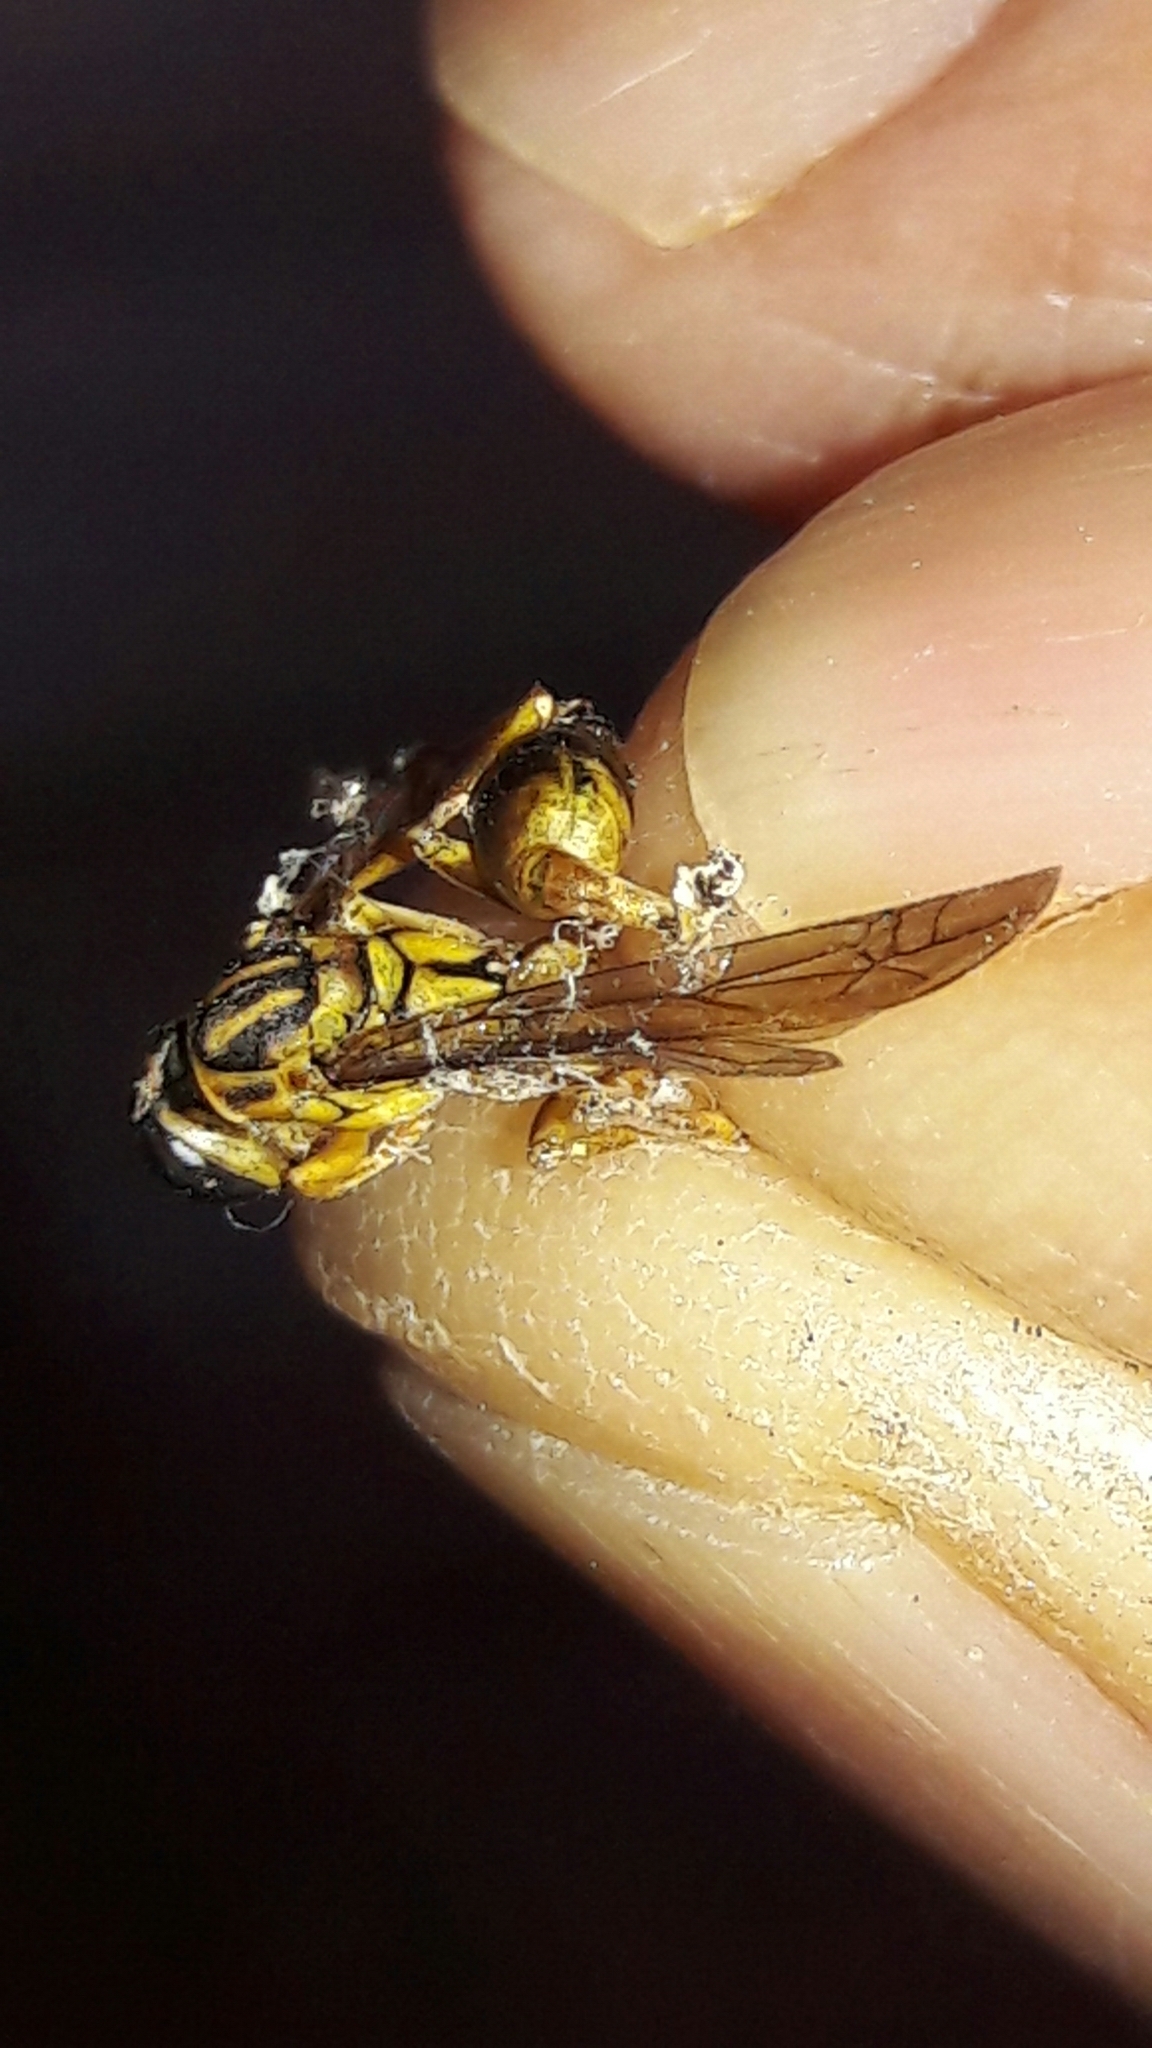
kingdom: Animalia
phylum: Arthropoda
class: Insecta
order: Hymenoptera
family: Vespidae
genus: Mischocyttarus
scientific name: Mischocyttarus cerberus
